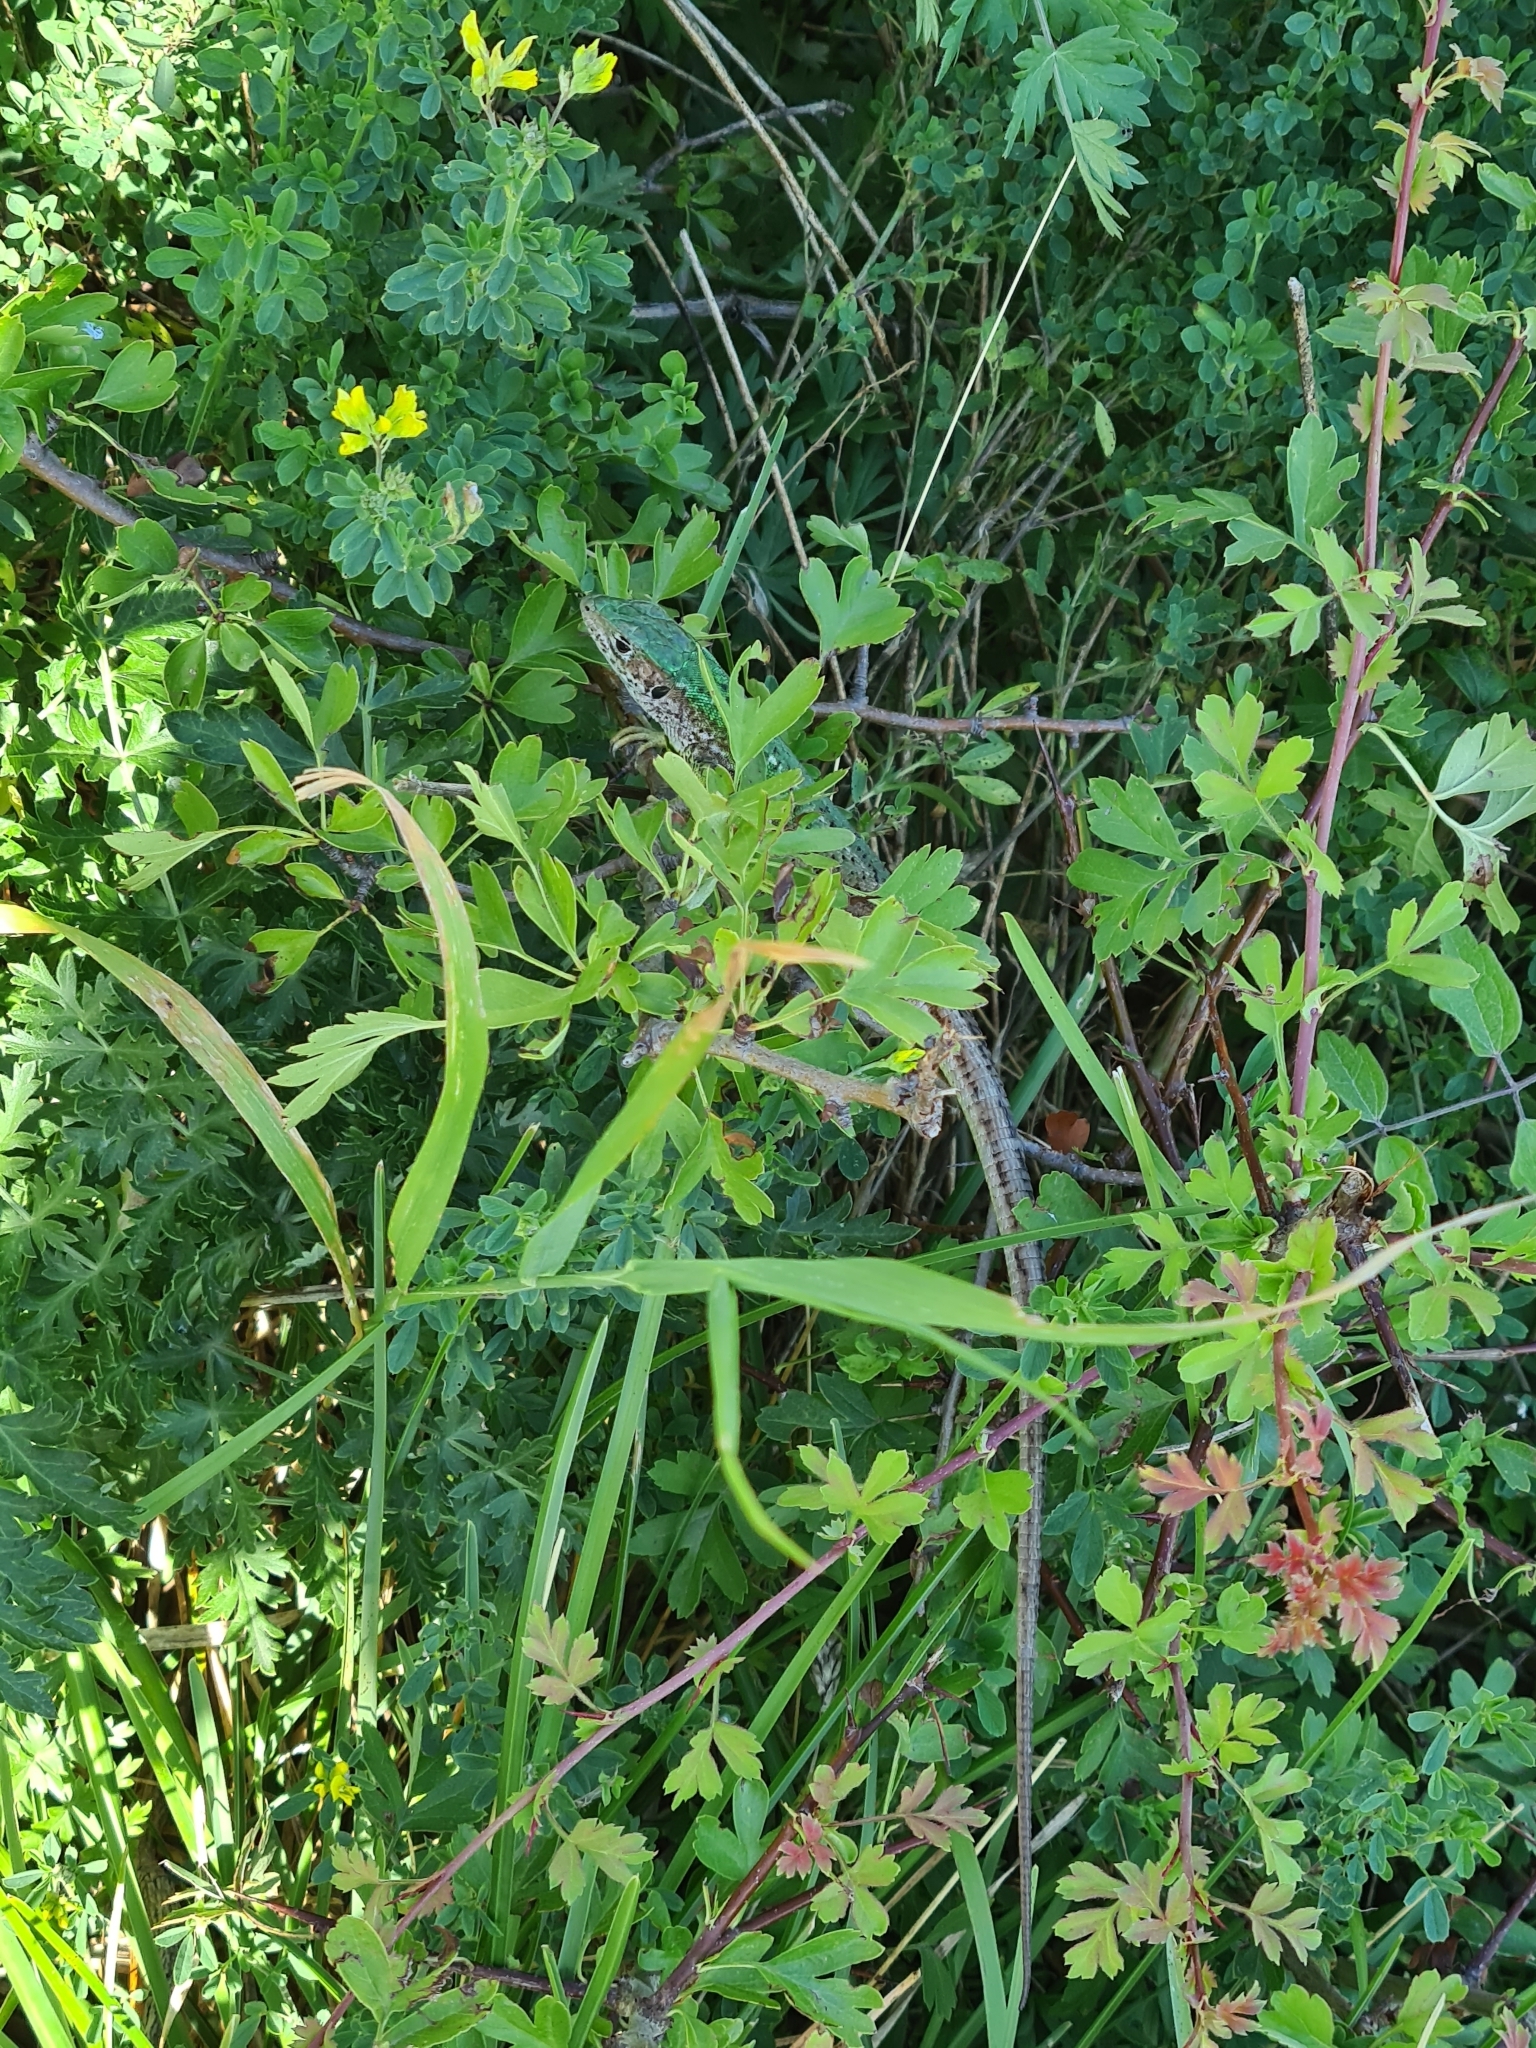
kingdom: Animalia
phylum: Chordata
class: Squamata
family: Lacertidae
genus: Lacerta
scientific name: Lacerta viridis
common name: European green lizard
